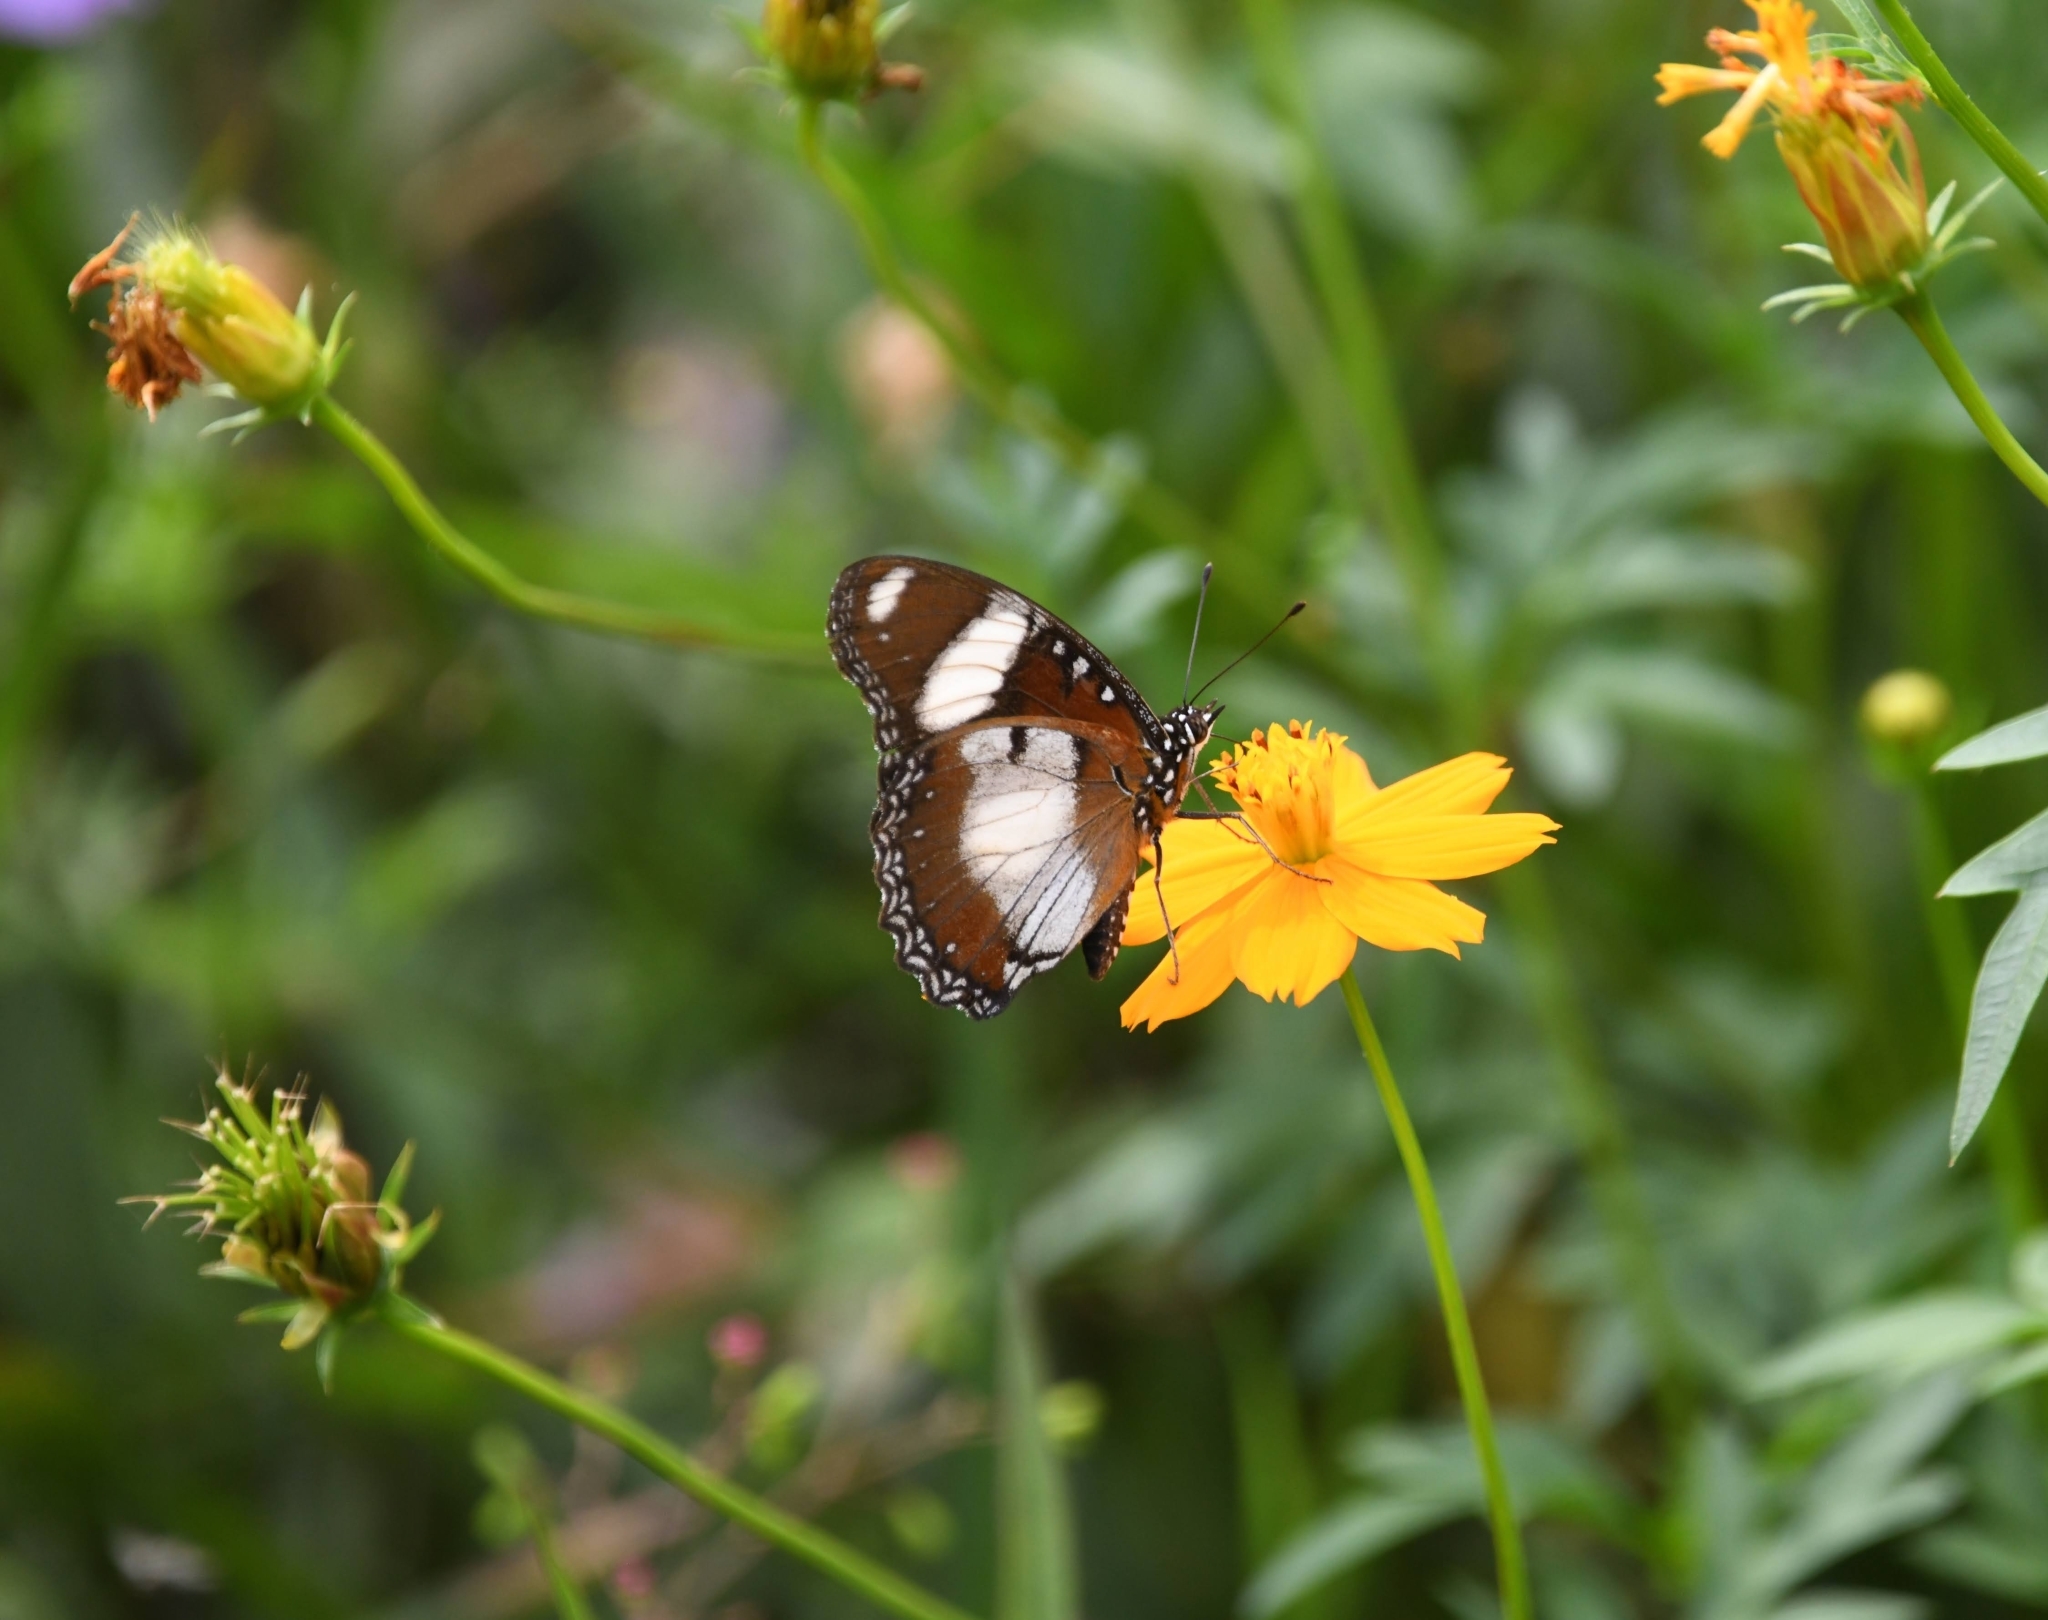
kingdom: Animalia
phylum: Arthropoda
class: Insecta
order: Lepidoptera
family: Nymphalidae
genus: Hypolimnas
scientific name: Hypolimnas misippus
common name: False plain tiger
